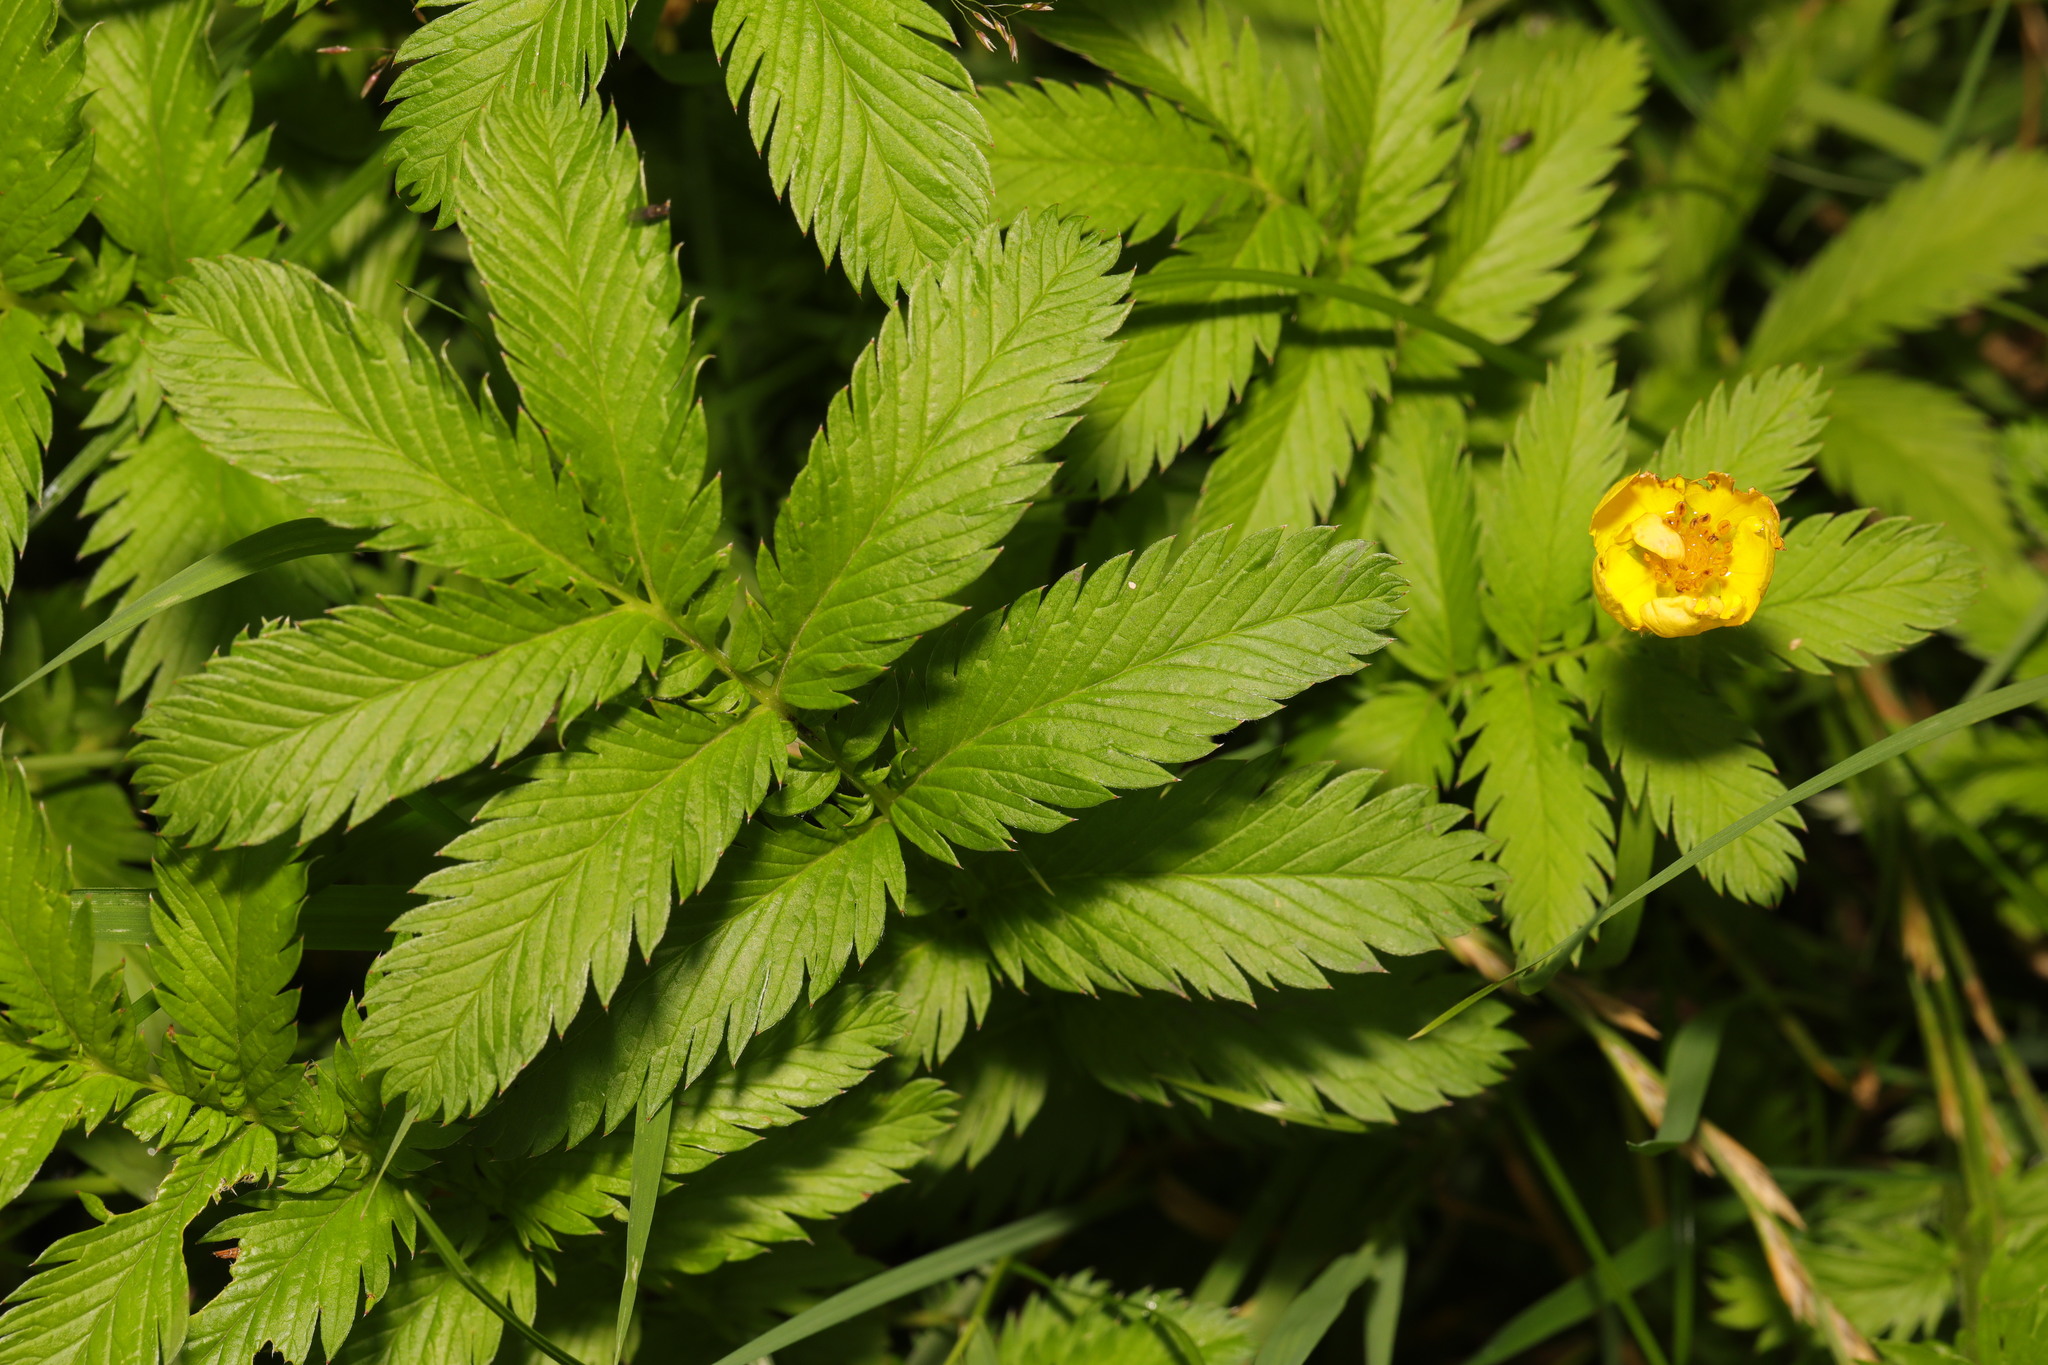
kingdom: Plantae
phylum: Tracheophyta
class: Magnoliopsida
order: Rosales
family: Rosaceae
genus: Argentina
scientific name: Argentina anserina
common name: Common silverweed
